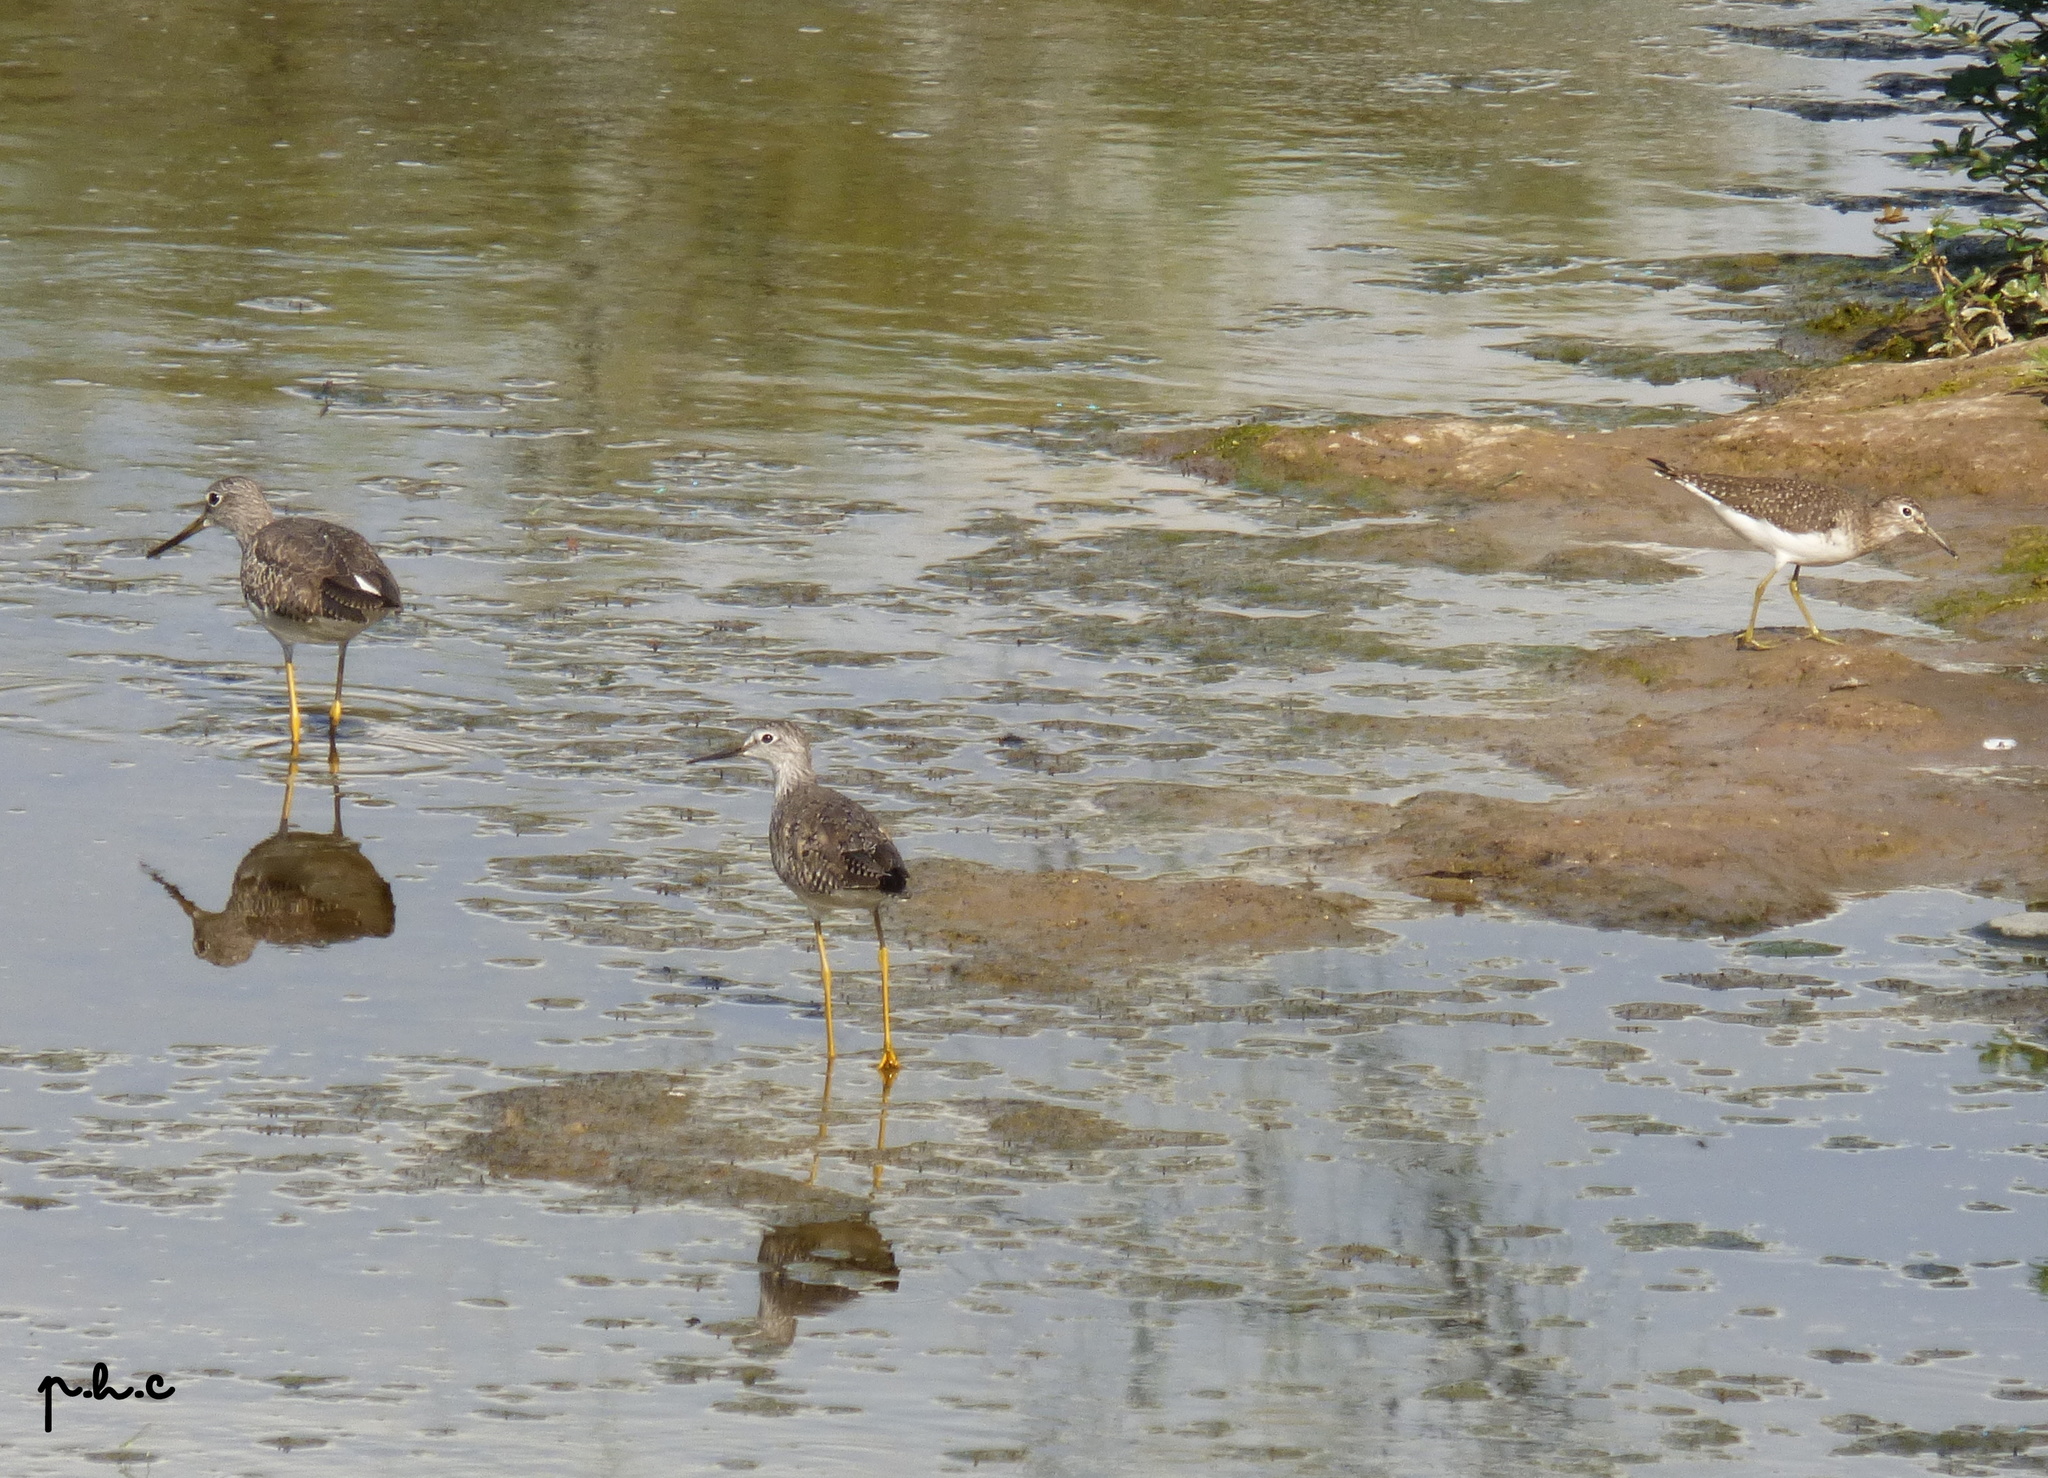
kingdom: Animalia
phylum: Chordata
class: Aves
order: Charadriiformes
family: Scolopacidae
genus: Tringa
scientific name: Tringa melanoleuca
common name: Greater yellowlegs
